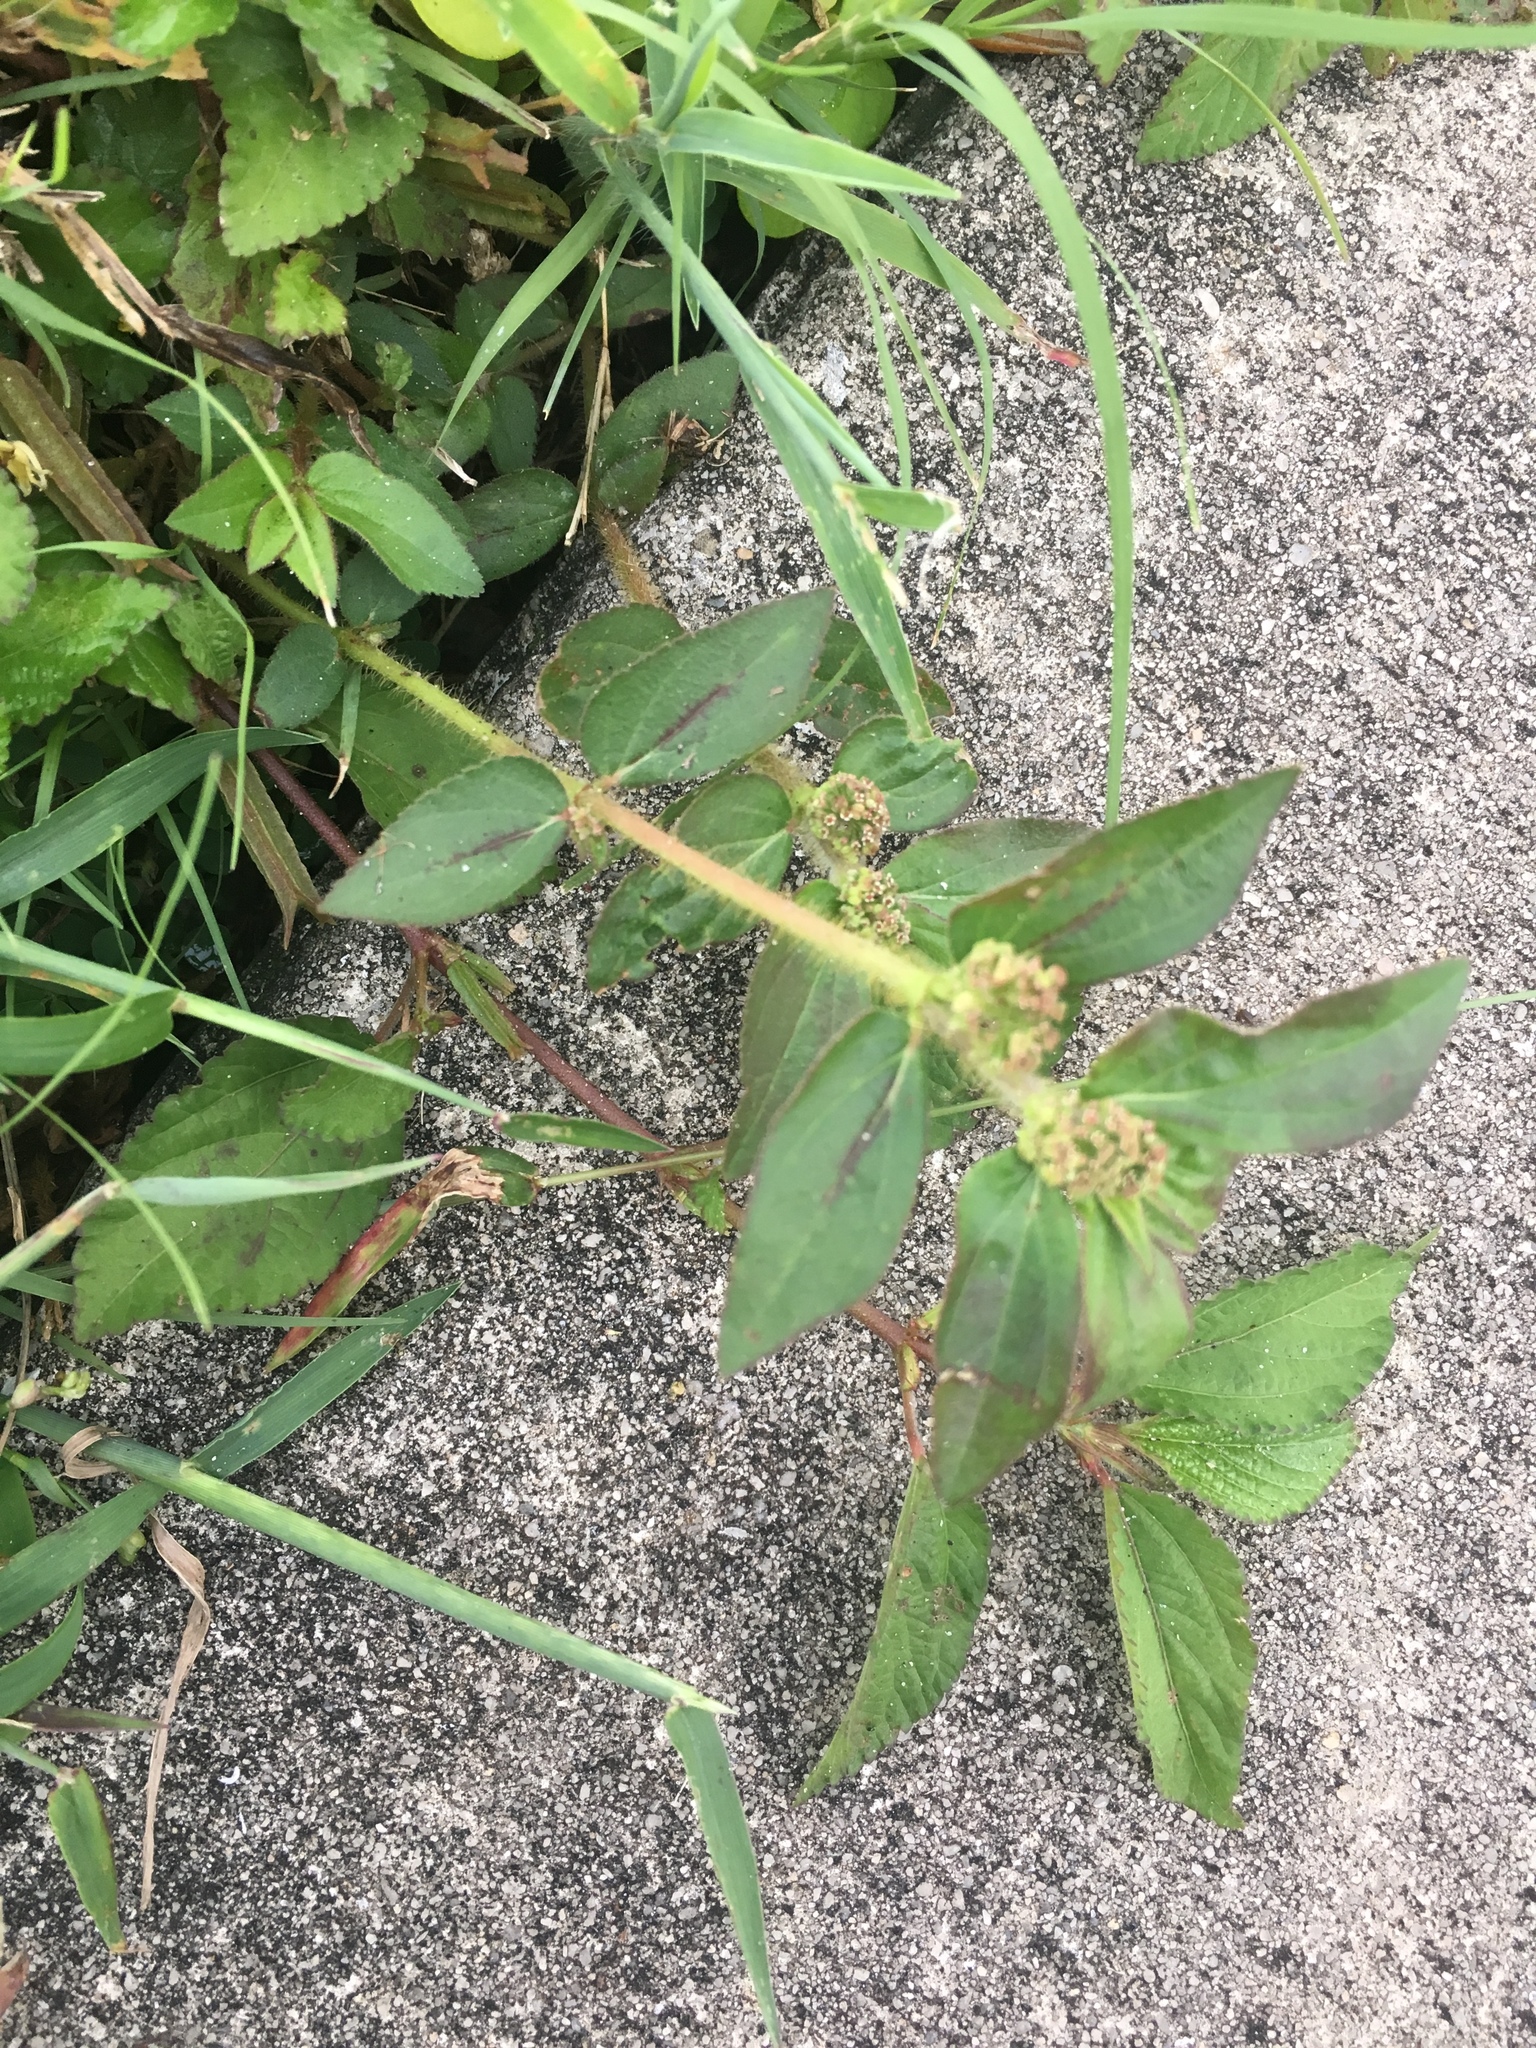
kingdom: Plantae
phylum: Tracheophyta
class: Magnoliopsida
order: Malpighiales
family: Euphorbiaceae
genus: Euphorbia
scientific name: Euphorbia hirta
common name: Pillpod sandmat
